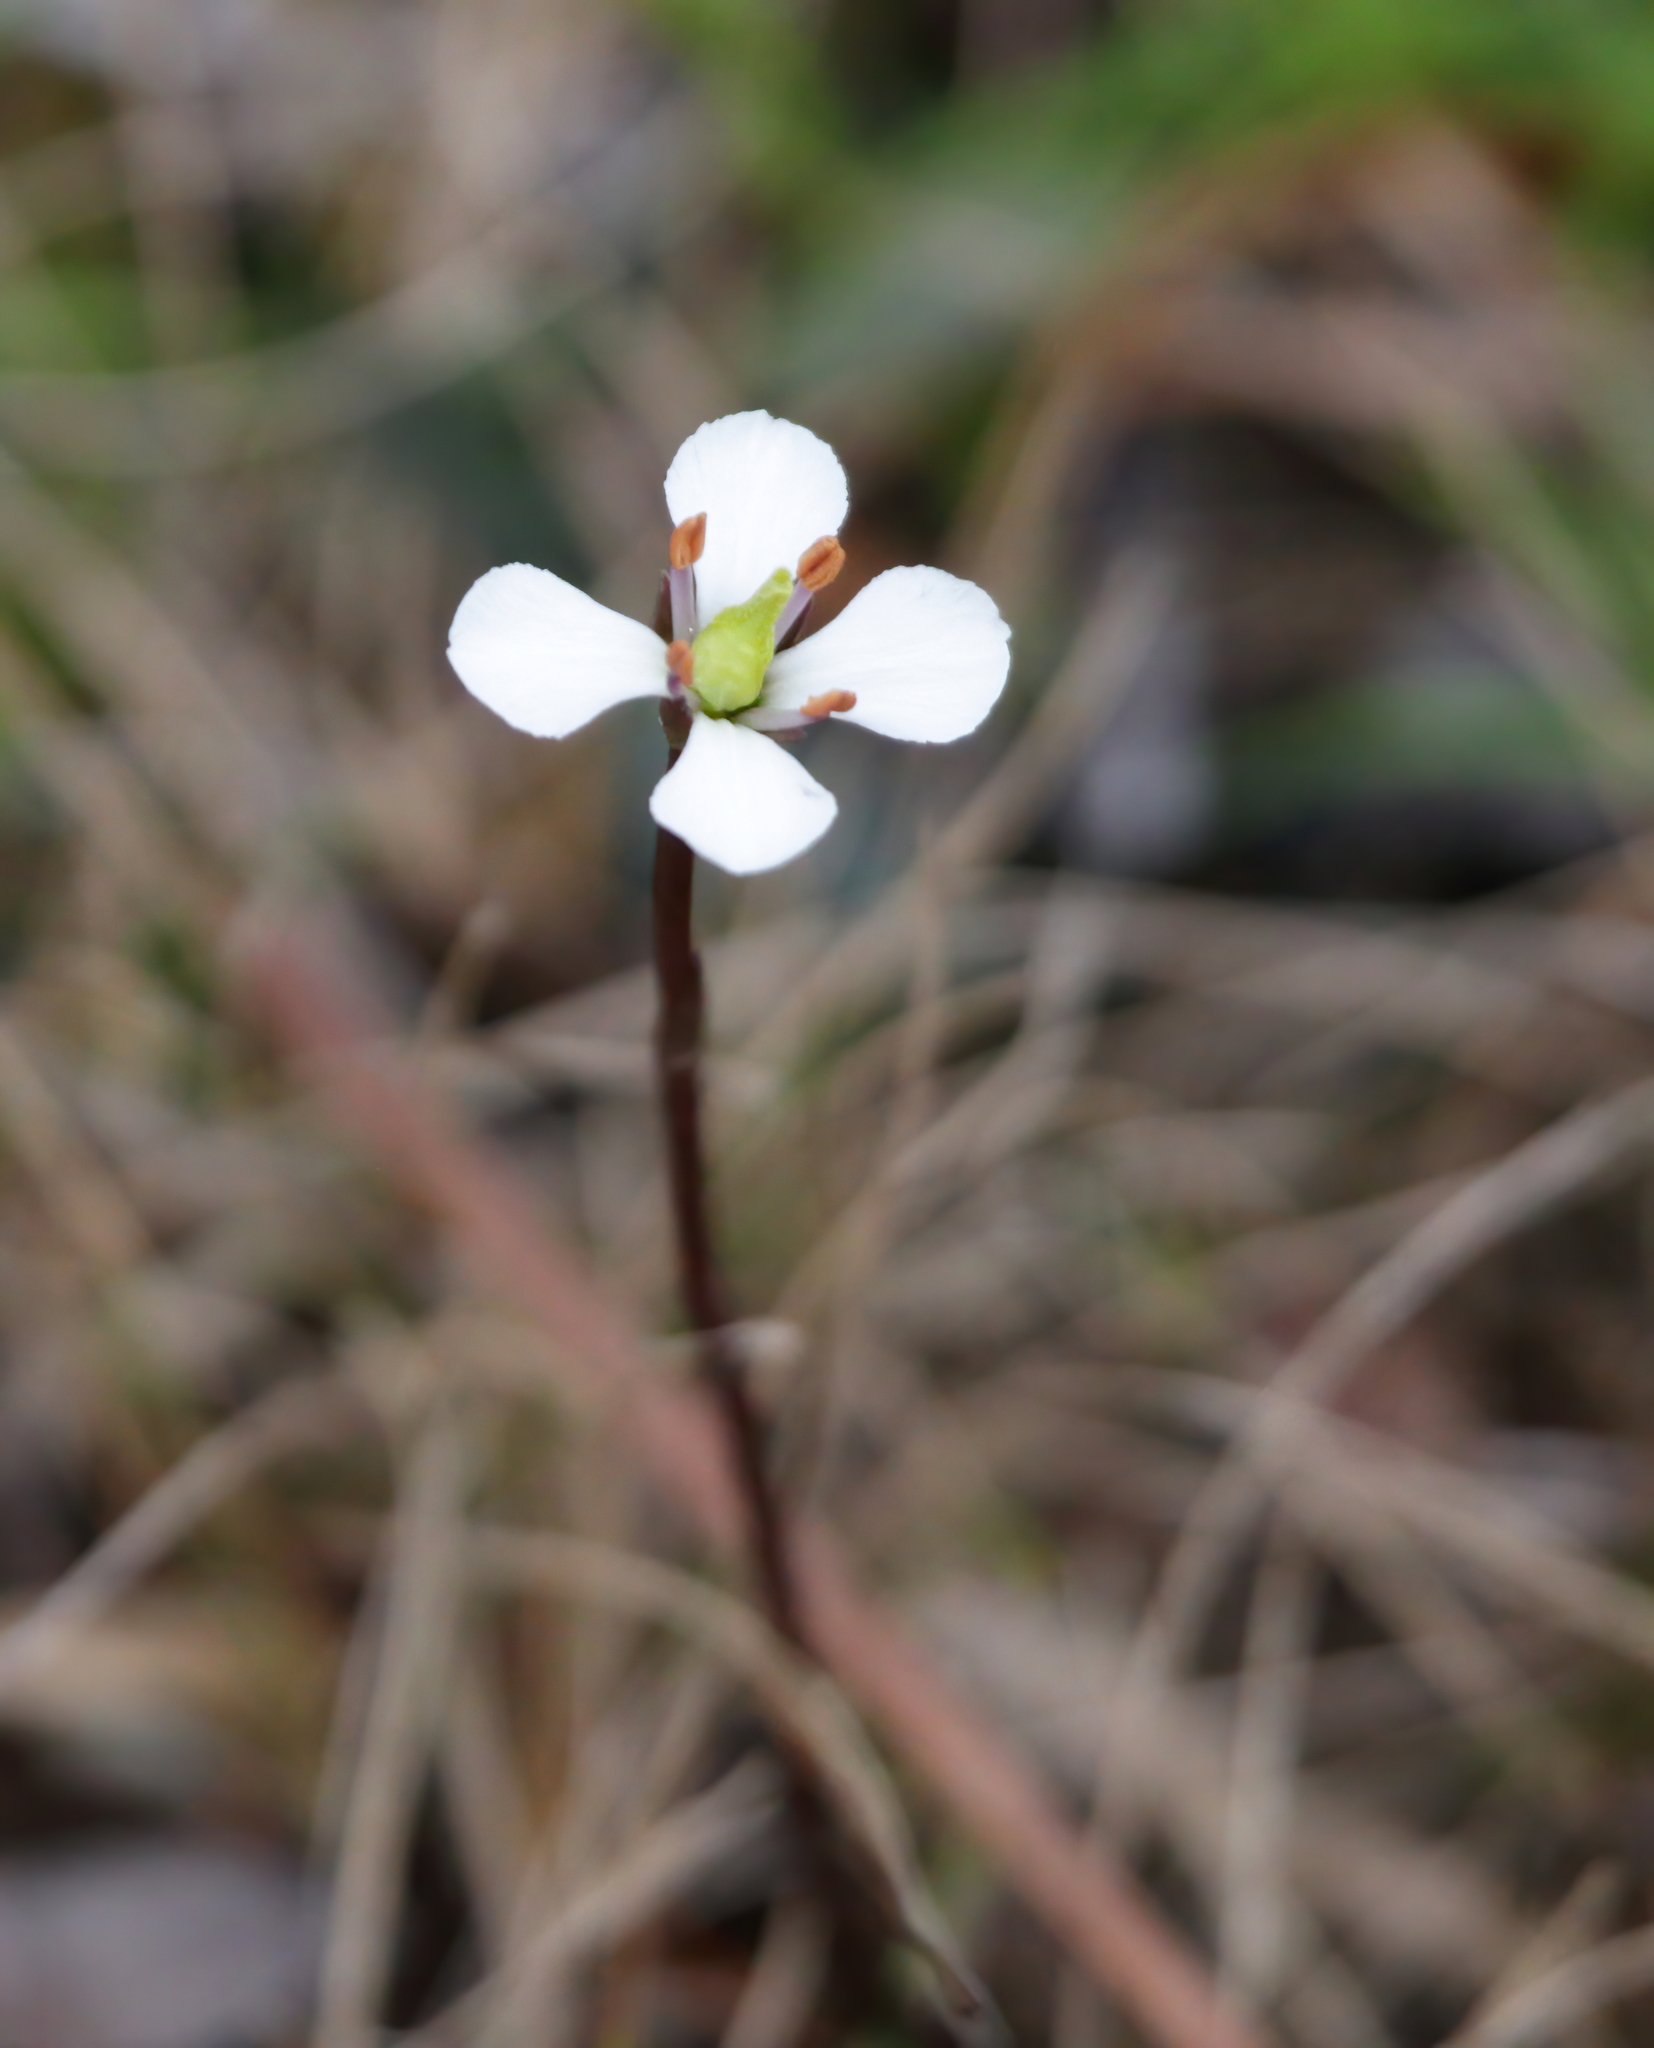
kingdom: Plantae
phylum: Tracheophyta
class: Magnoliopsida
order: Gentianales
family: Gentianaceae
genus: Bartonia
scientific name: Bartonia verna
